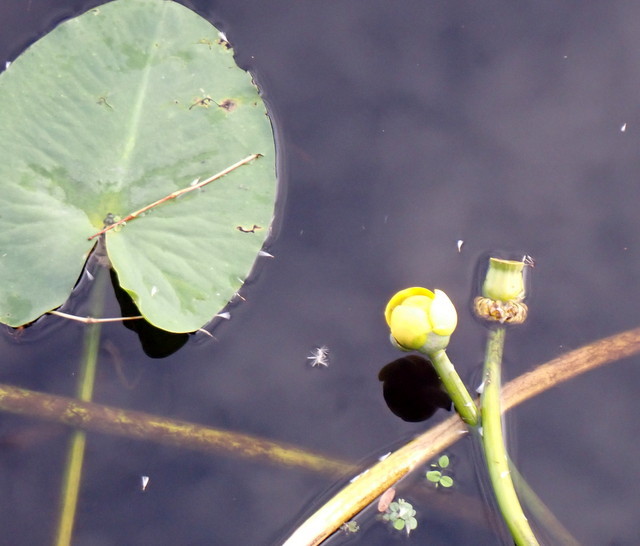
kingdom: Plantae
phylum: Tracheophyta
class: Magnoliopsida
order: Nymphaeales
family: Nymphaeaceae
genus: Nuphar
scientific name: Nuphar advena
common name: Spatter-dock
